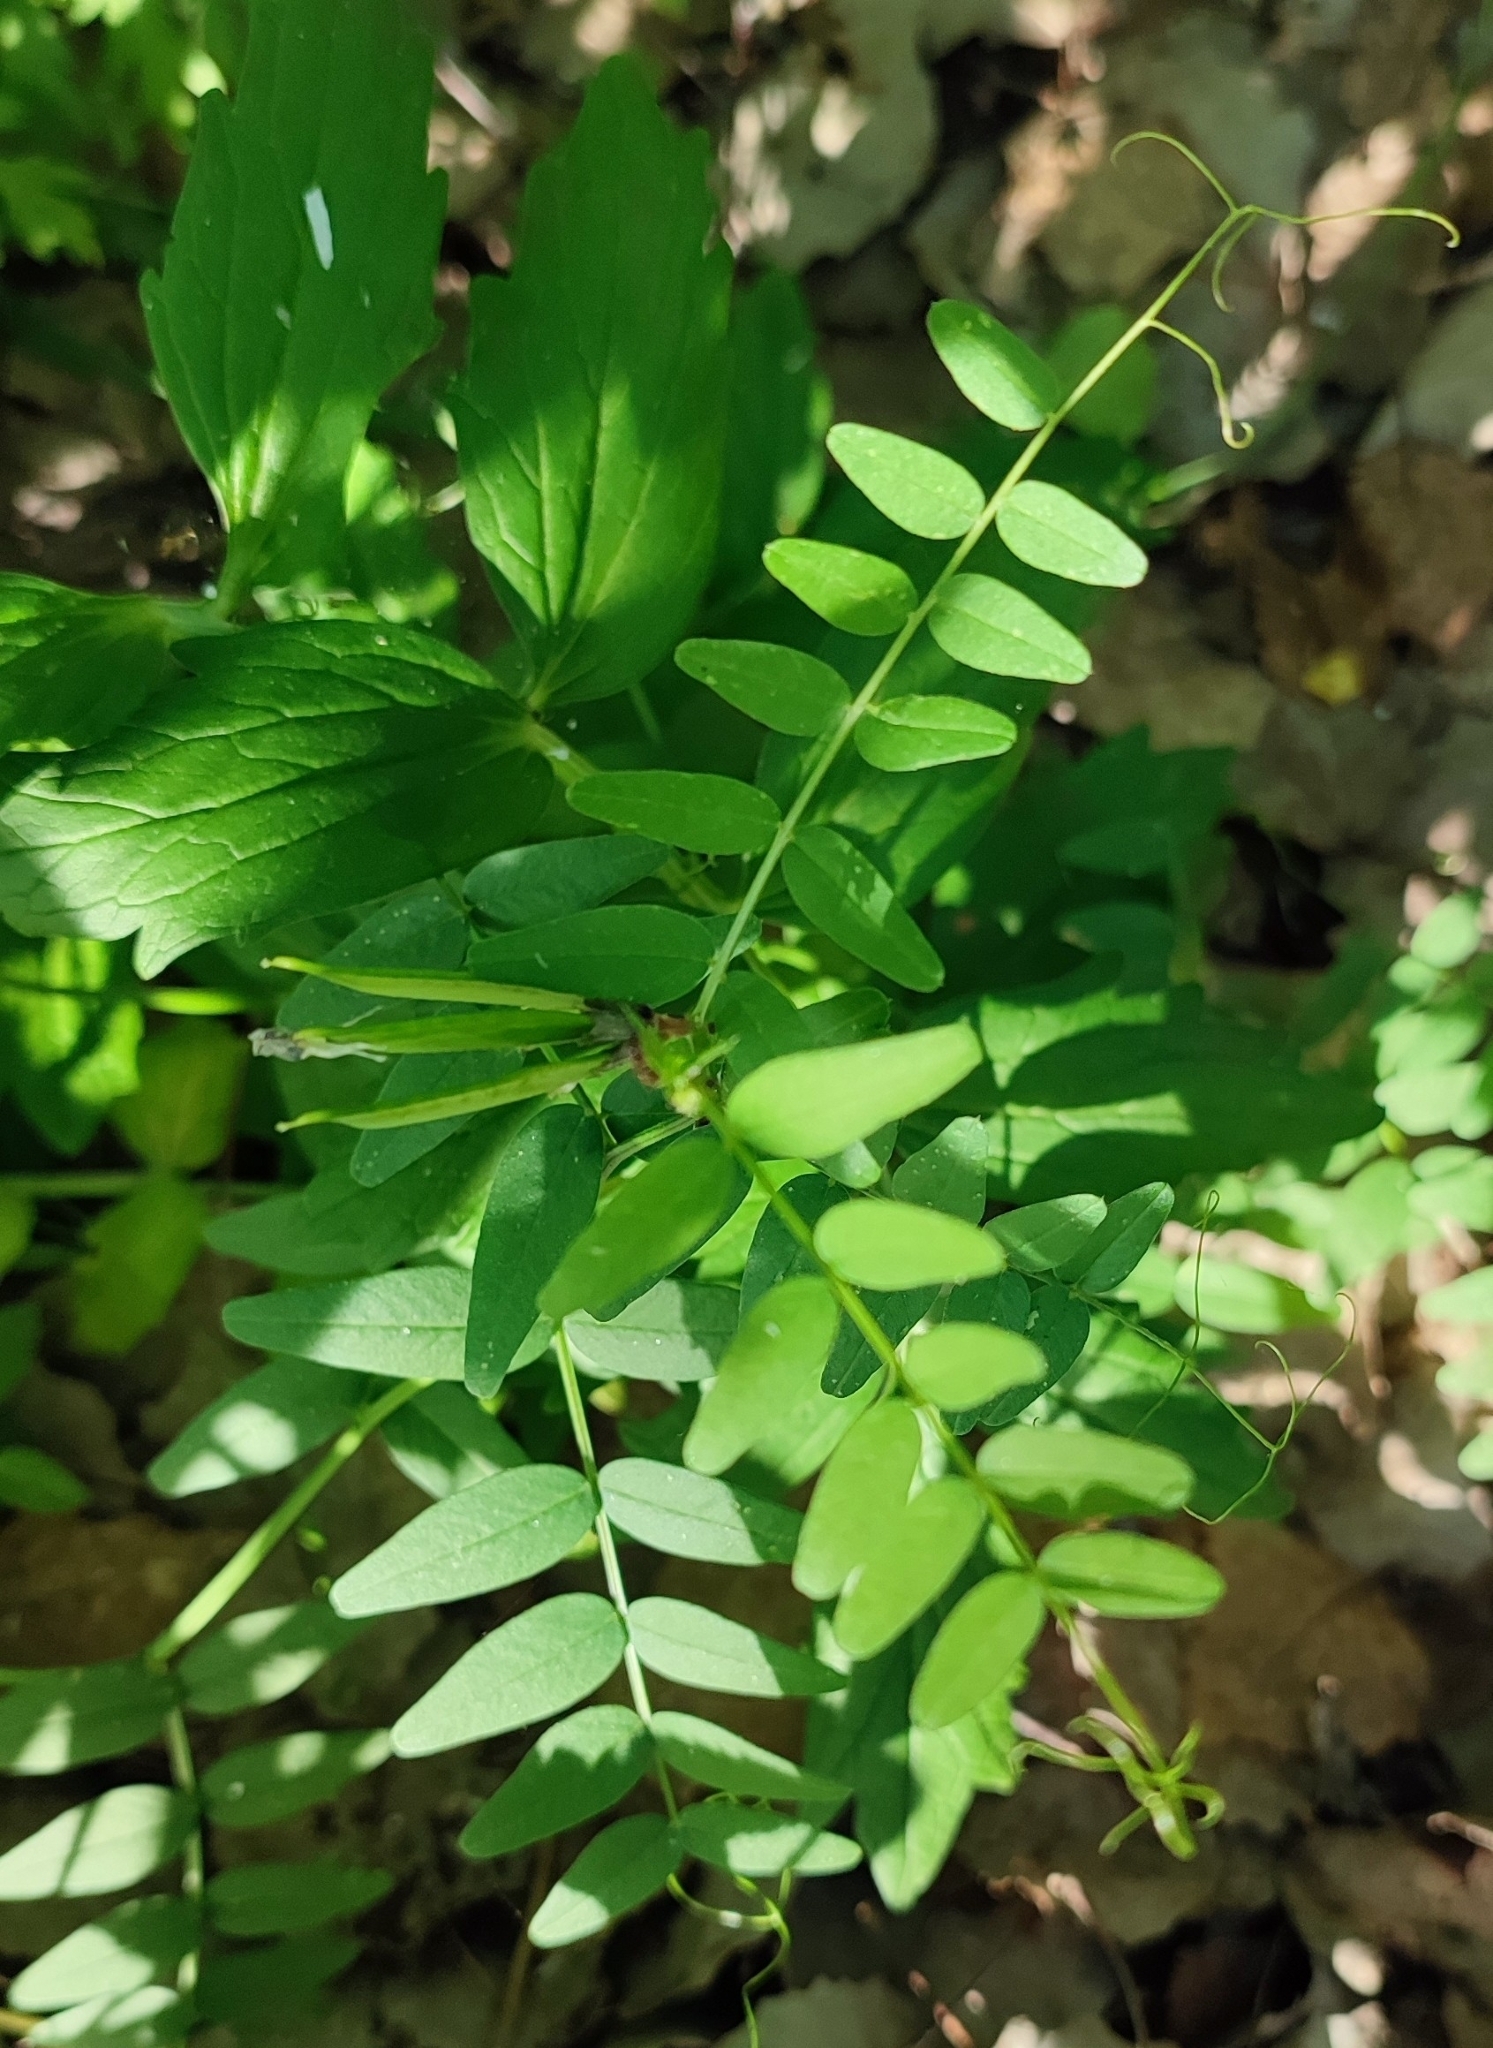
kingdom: Plantae
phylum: Tracheophyta
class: Magnoliopsida
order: Fabales
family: Fabaceae
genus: Vicia
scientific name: Vicia sepium
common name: Bush vetch
